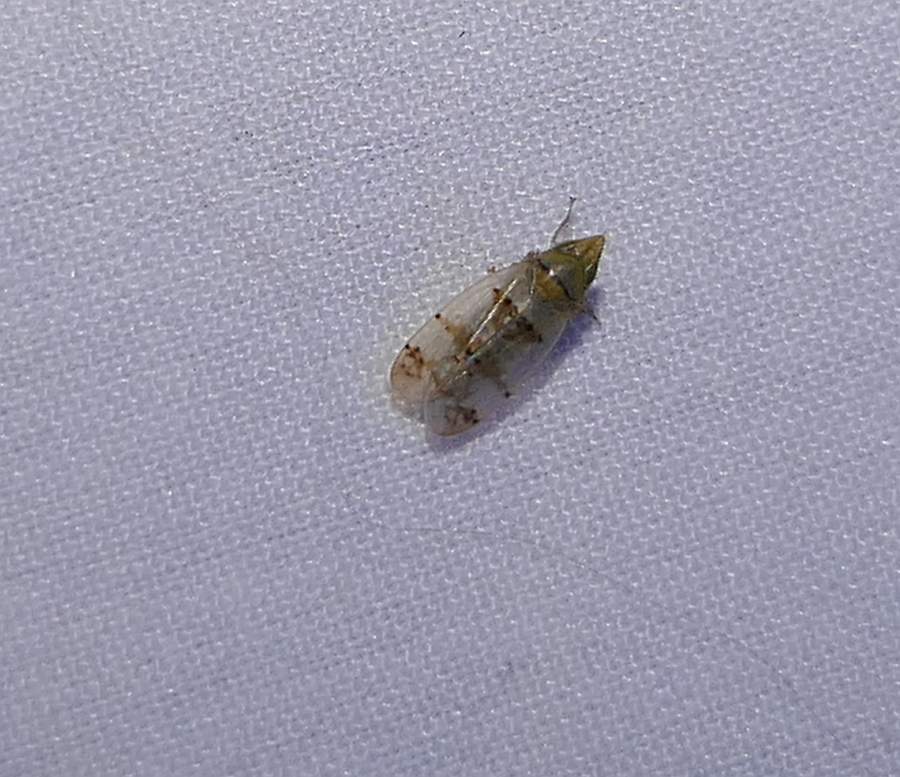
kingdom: Animalia
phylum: Arthropoda
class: Insecta
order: Hemiptera
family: Cicadellidae
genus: Japananus
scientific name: Japananus hyalinus
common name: The japanese maple leafhopper
